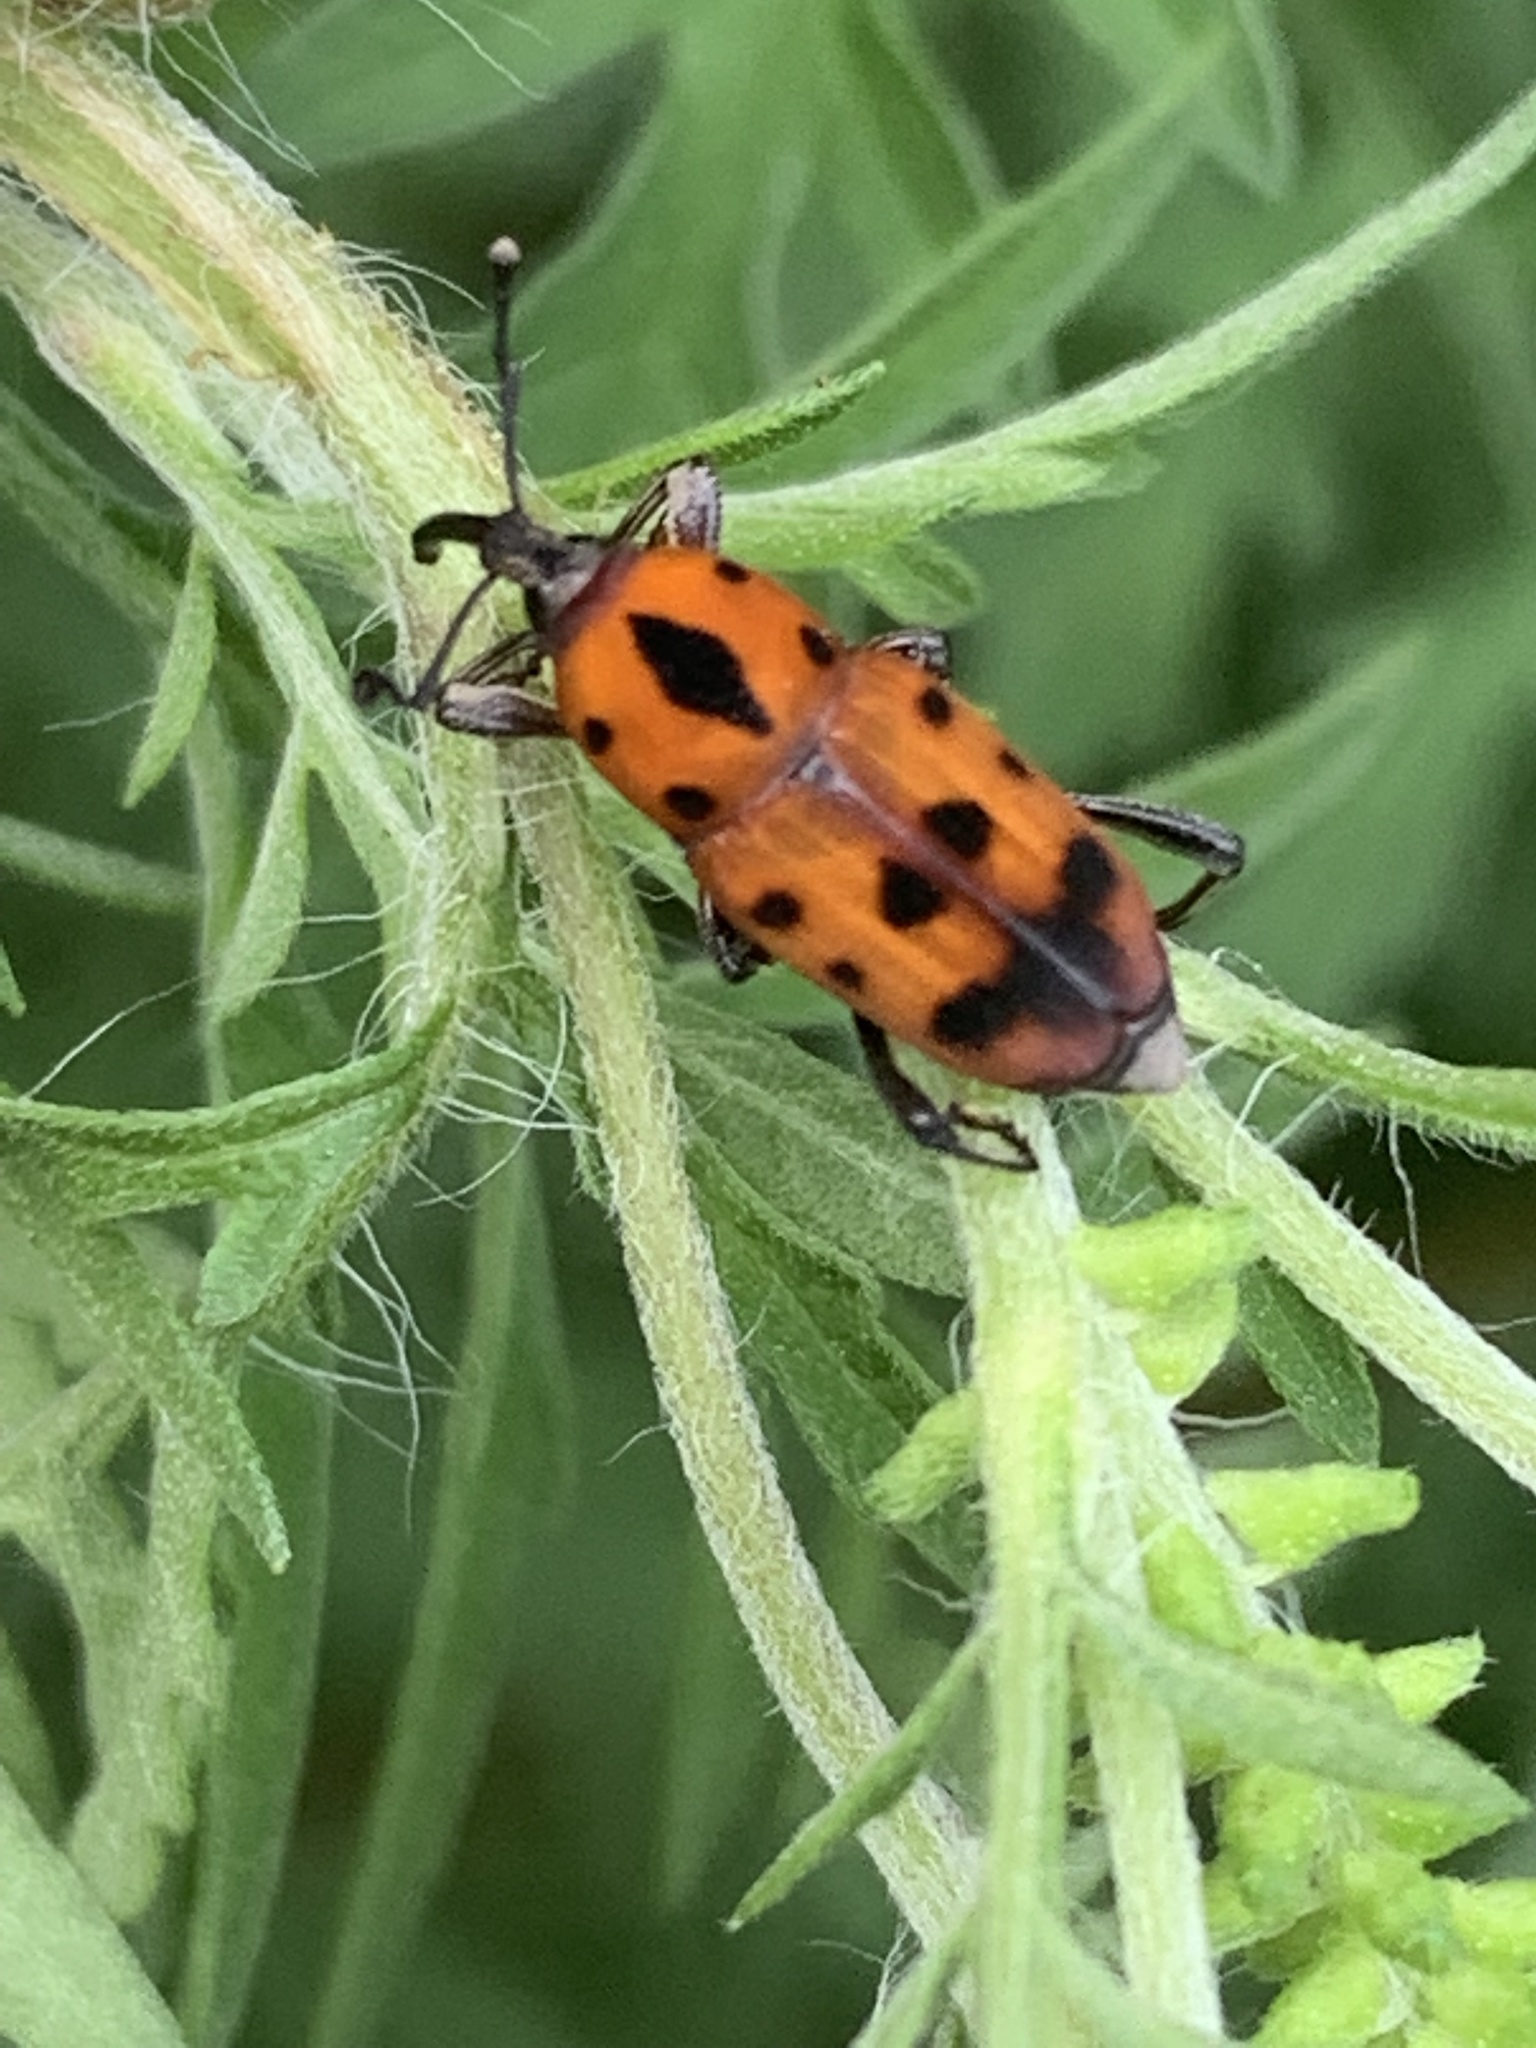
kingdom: Animalia
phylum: Arthropoda
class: Insecta
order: Coleoptera
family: Dryophthoridae
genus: Rhodobaenus
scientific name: Rhodobaenus quinquepunctatus
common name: Cocklebur weevil
